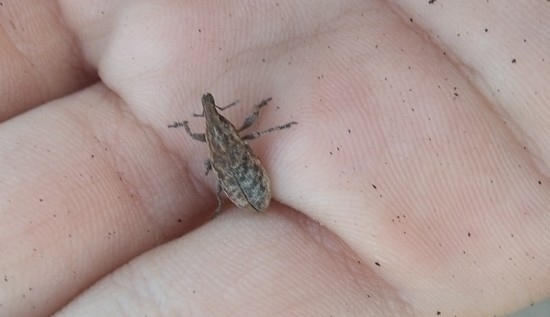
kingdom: Animalia
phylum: Arthropoda
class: Insecta
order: Coleoptera
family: Curculionidae
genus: Cleonis
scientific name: Cleonis pigra
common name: Large thistle weevil
